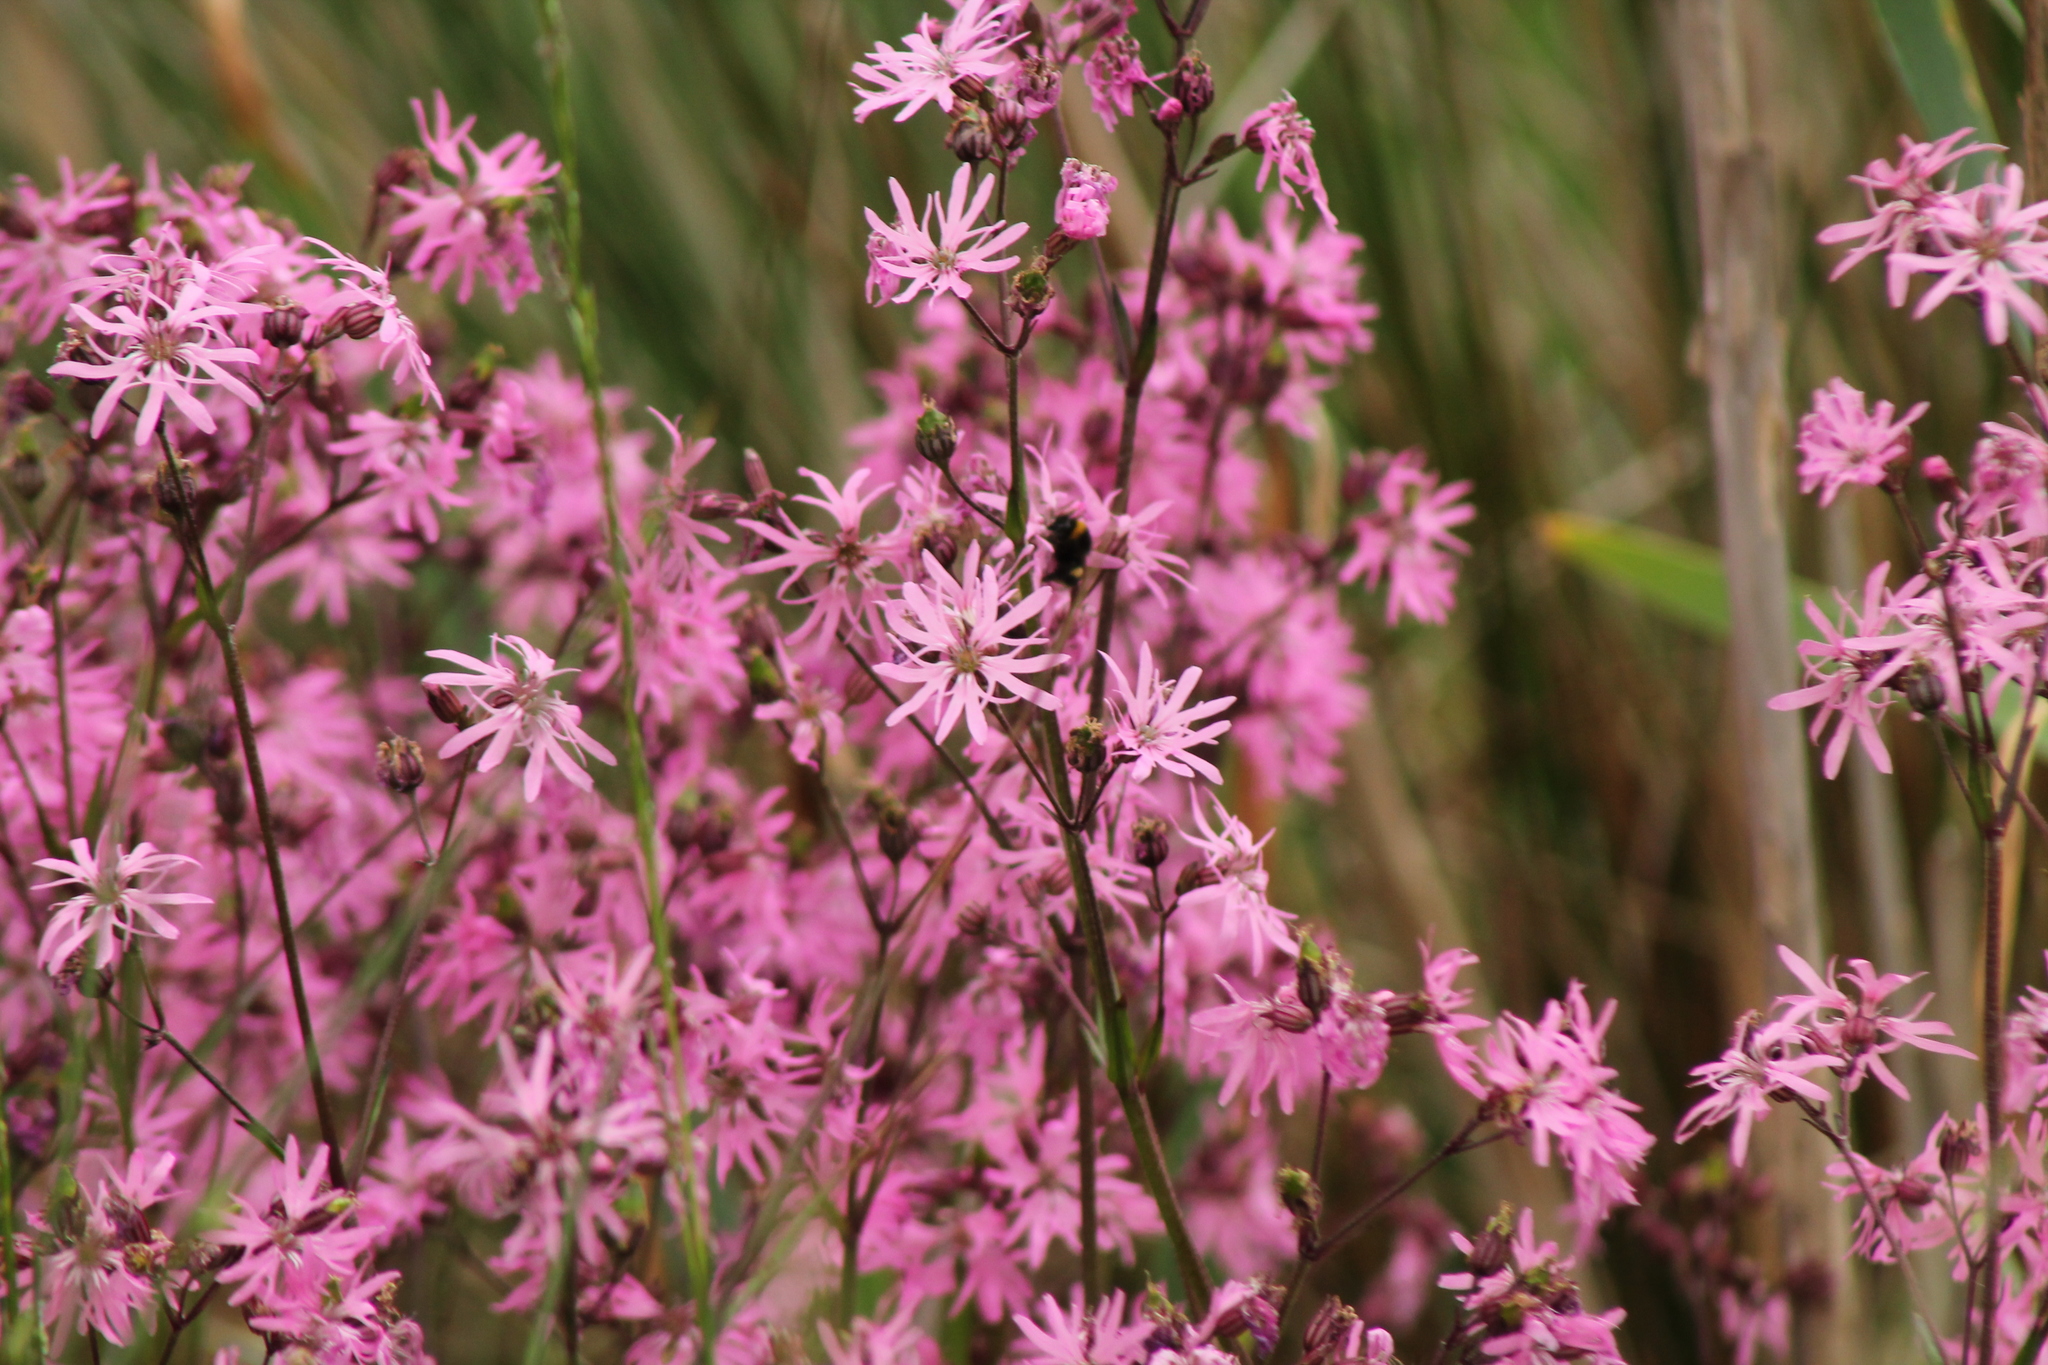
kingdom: Plantae
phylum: Tracheophyta
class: Magnoliopsida
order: Caryophyllales
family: Caryophyllaceae
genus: Silene
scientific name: Silene flos-cuculi
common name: Ragged-robin
